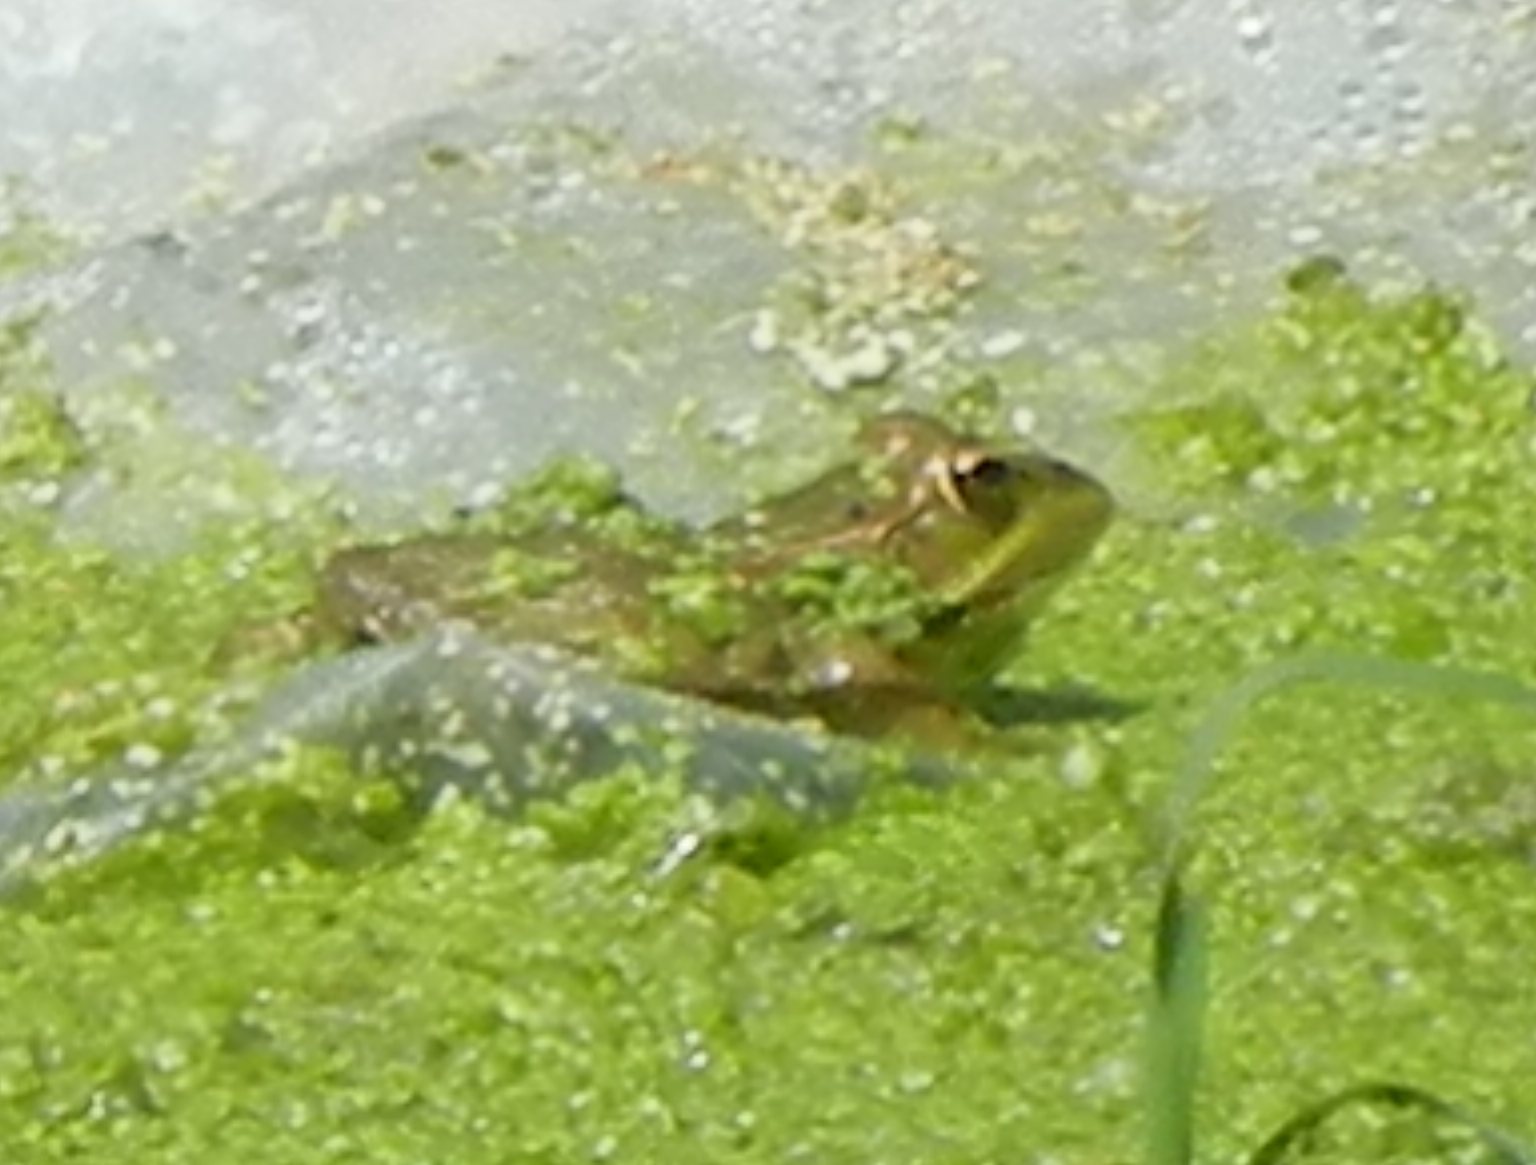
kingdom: Animalia
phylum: Chordata
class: Amphibia
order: Anura
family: Ranidae
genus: Pelophylax
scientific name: Pelophylax perezi
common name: Perez's frog
